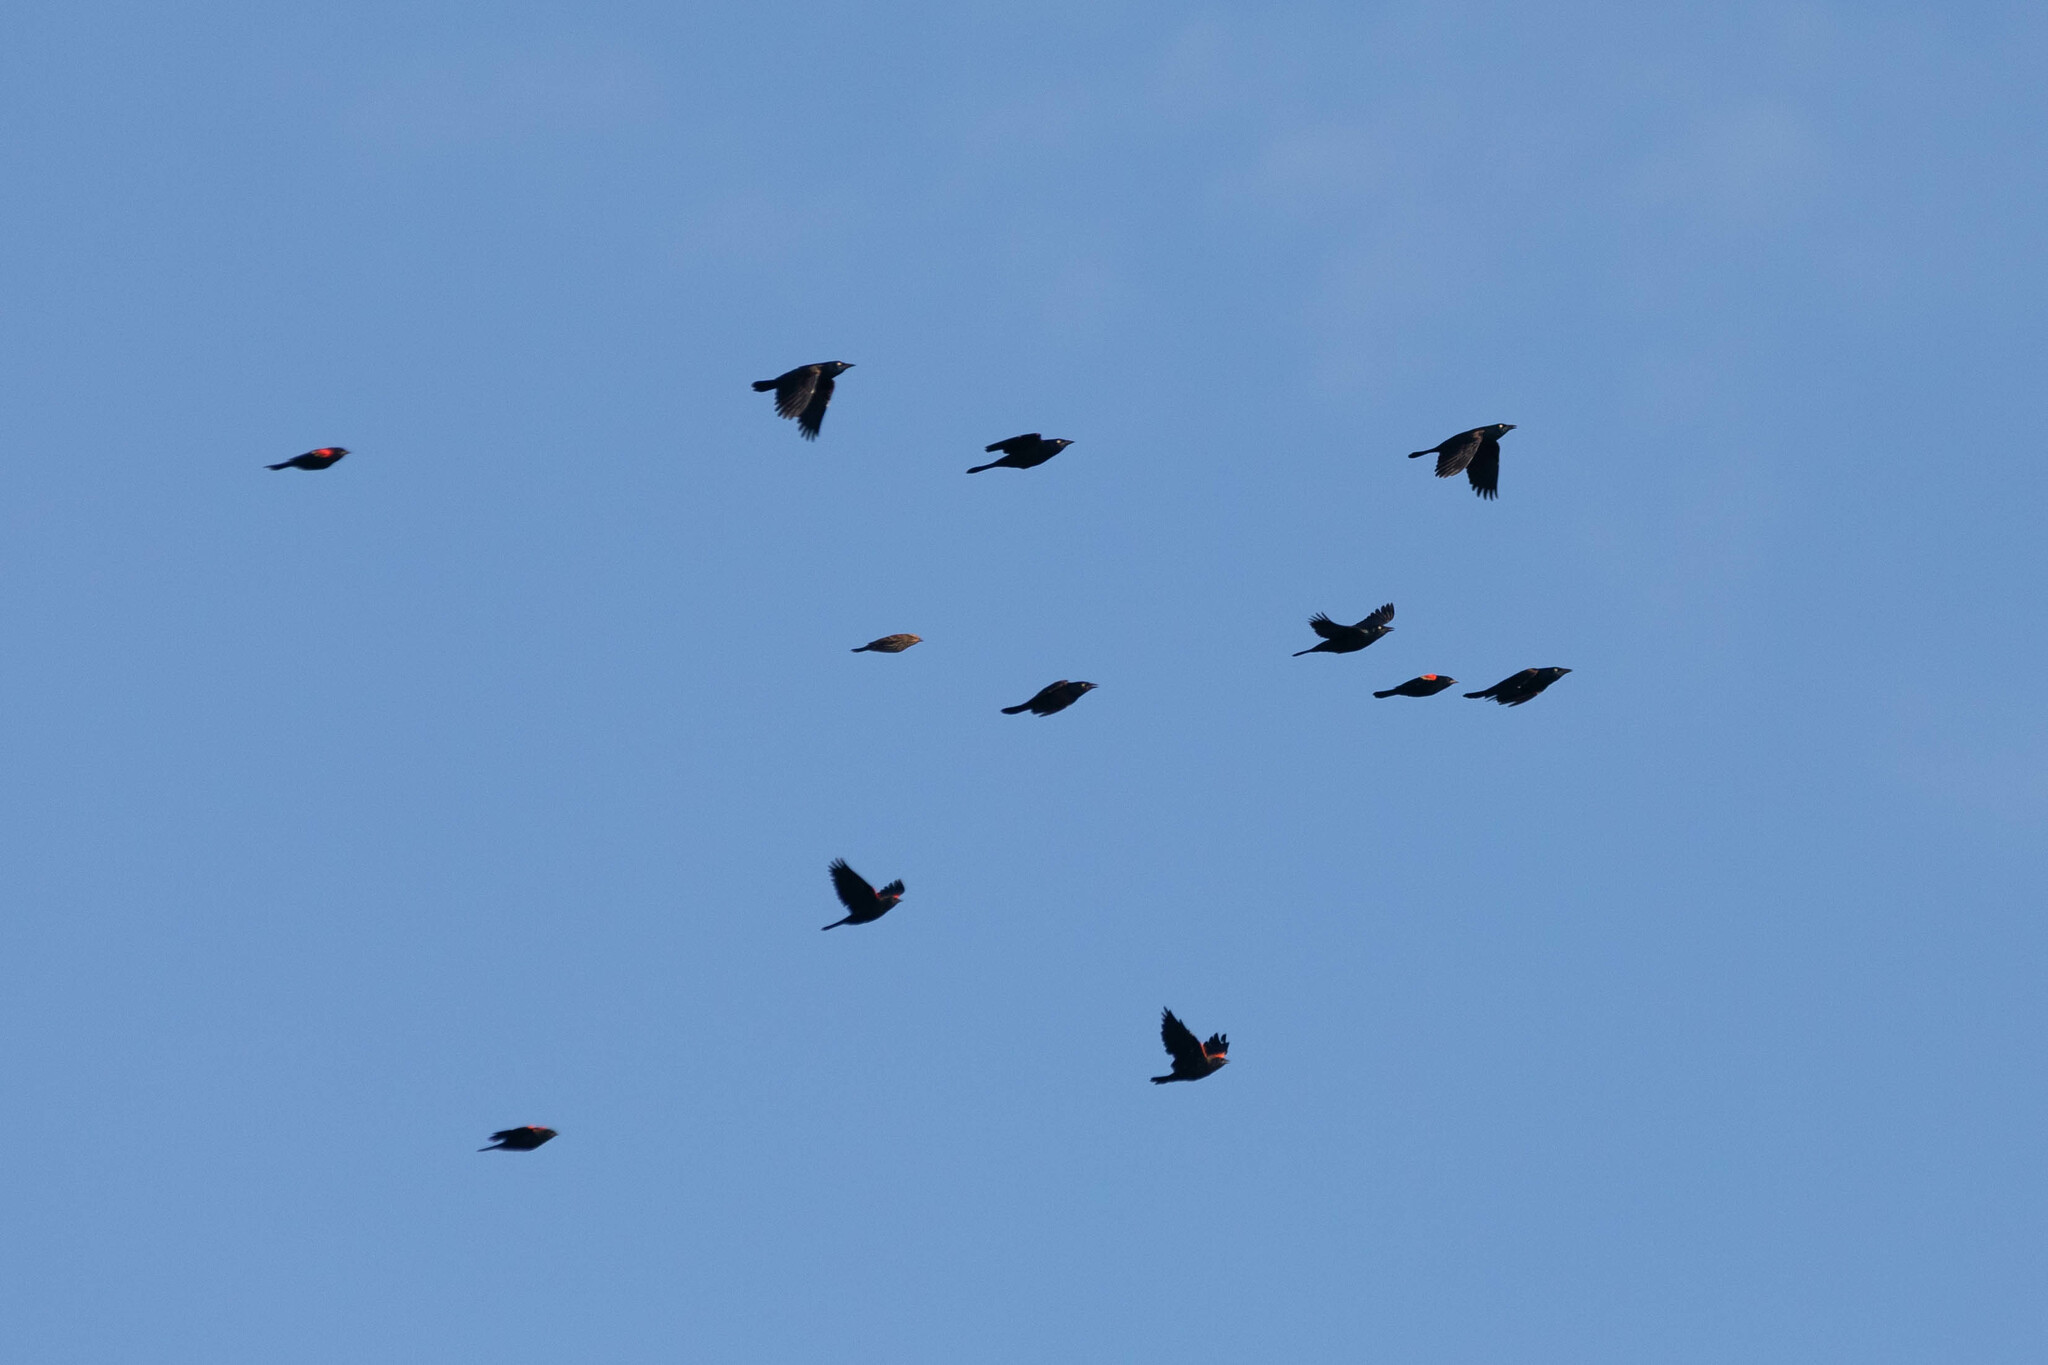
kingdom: Animalia
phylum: Chordata
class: Aves
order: Passeriformes
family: Icteridae
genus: Agelaius
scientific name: Agelaius phoeniceus
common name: Red-winged blackbird
